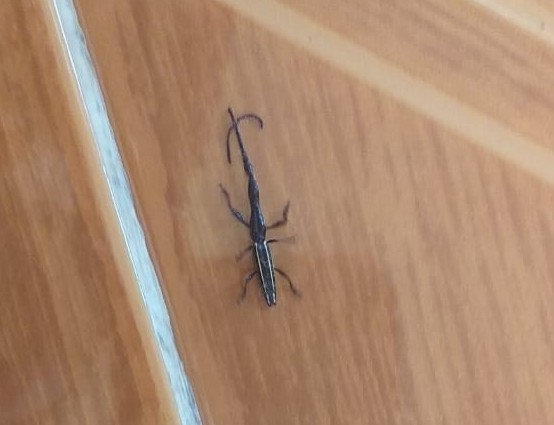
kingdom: Animalia
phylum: Arthropoda
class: Insecta
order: Coleoptera
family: Brentidae
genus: Brentus
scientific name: Brentus anchorago
